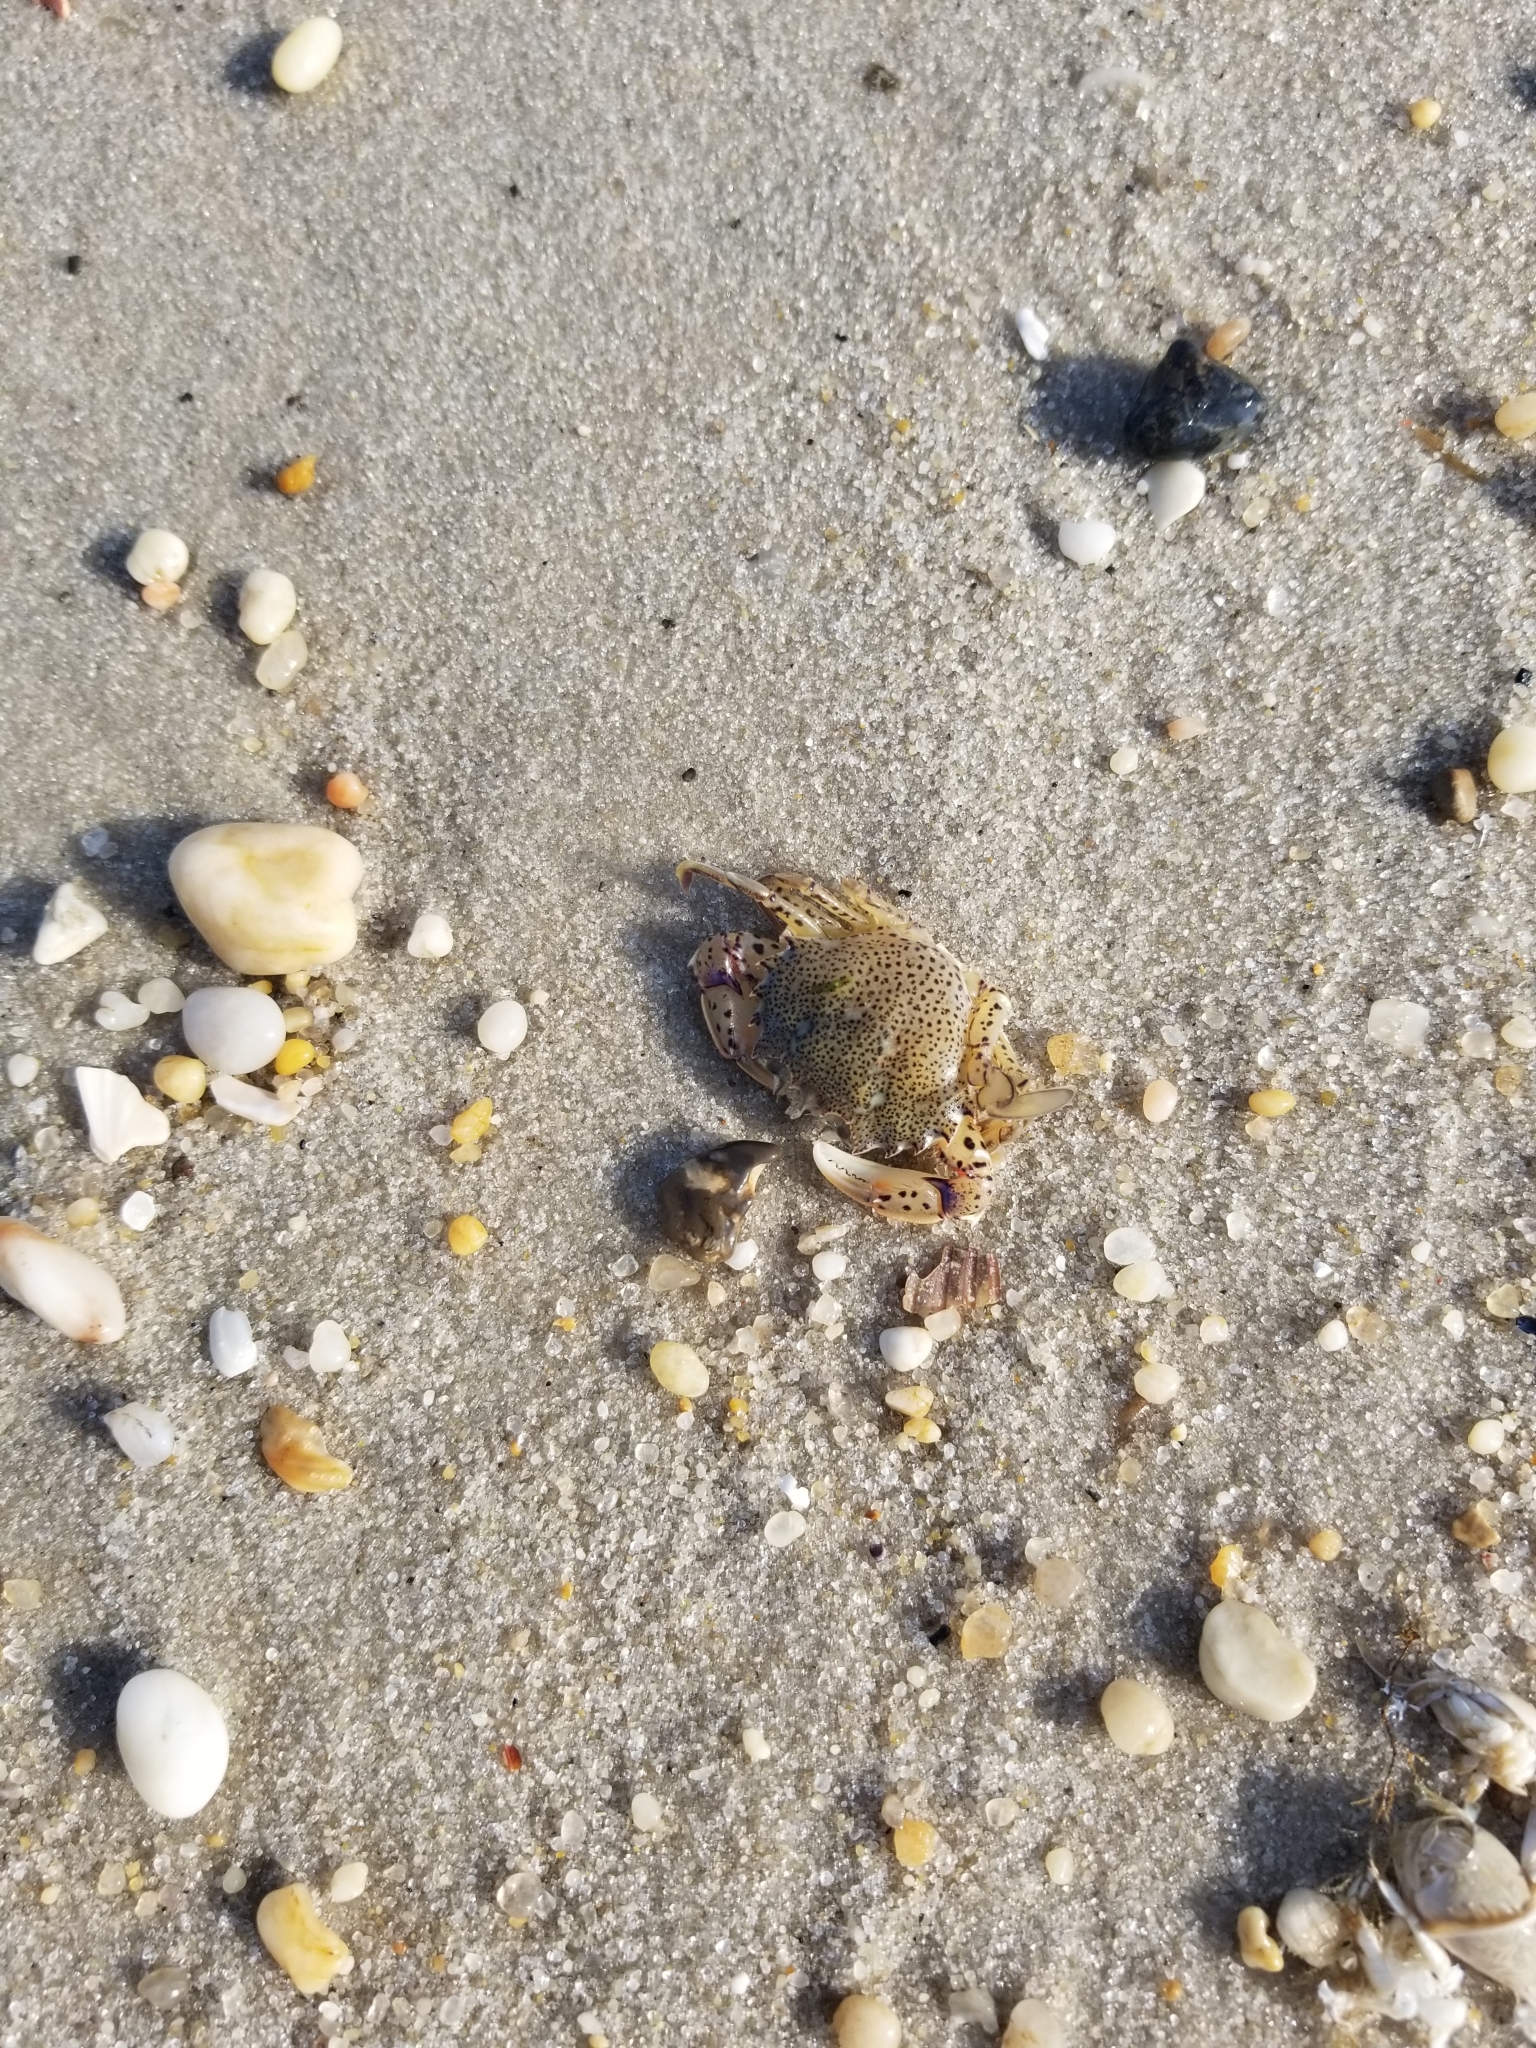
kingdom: Animalia
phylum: Arthropoda
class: Malacostraca
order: Decapoda
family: Ovalipidae
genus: Ovalipes
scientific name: Ovalipes ocellatus
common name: Lady crab
